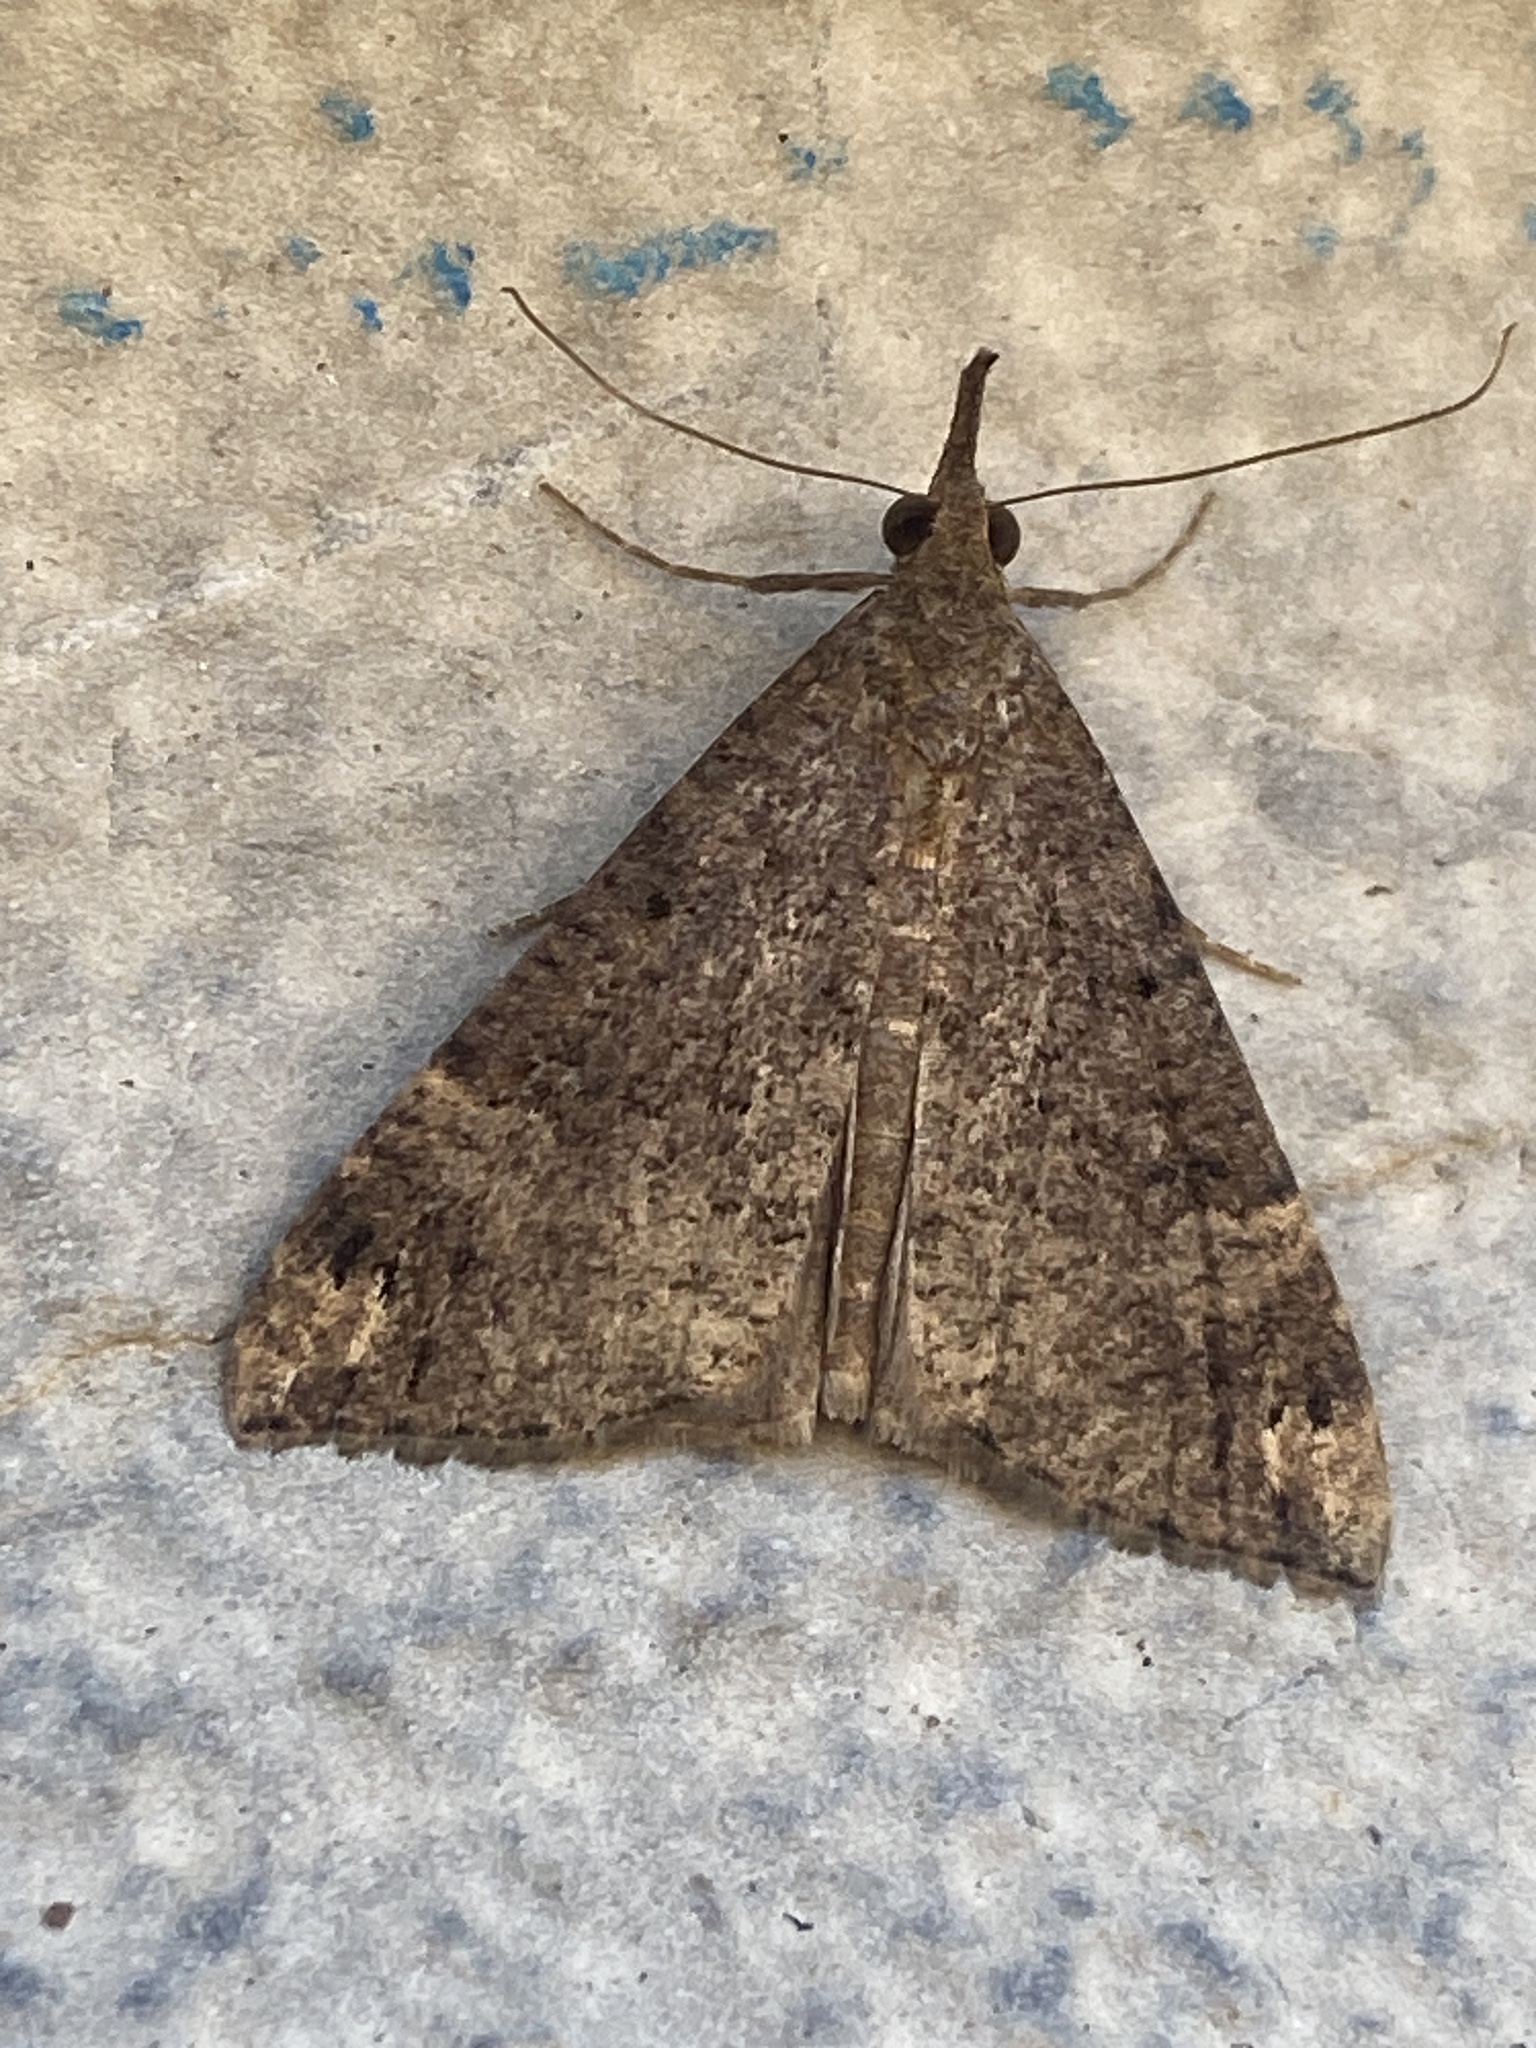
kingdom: Animalia
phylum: Arthropoda
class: Insecta
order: Lepidoptera
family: Erebidae
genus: Hypena
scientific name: Hypena obsitalis
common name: Bloxworth snout
